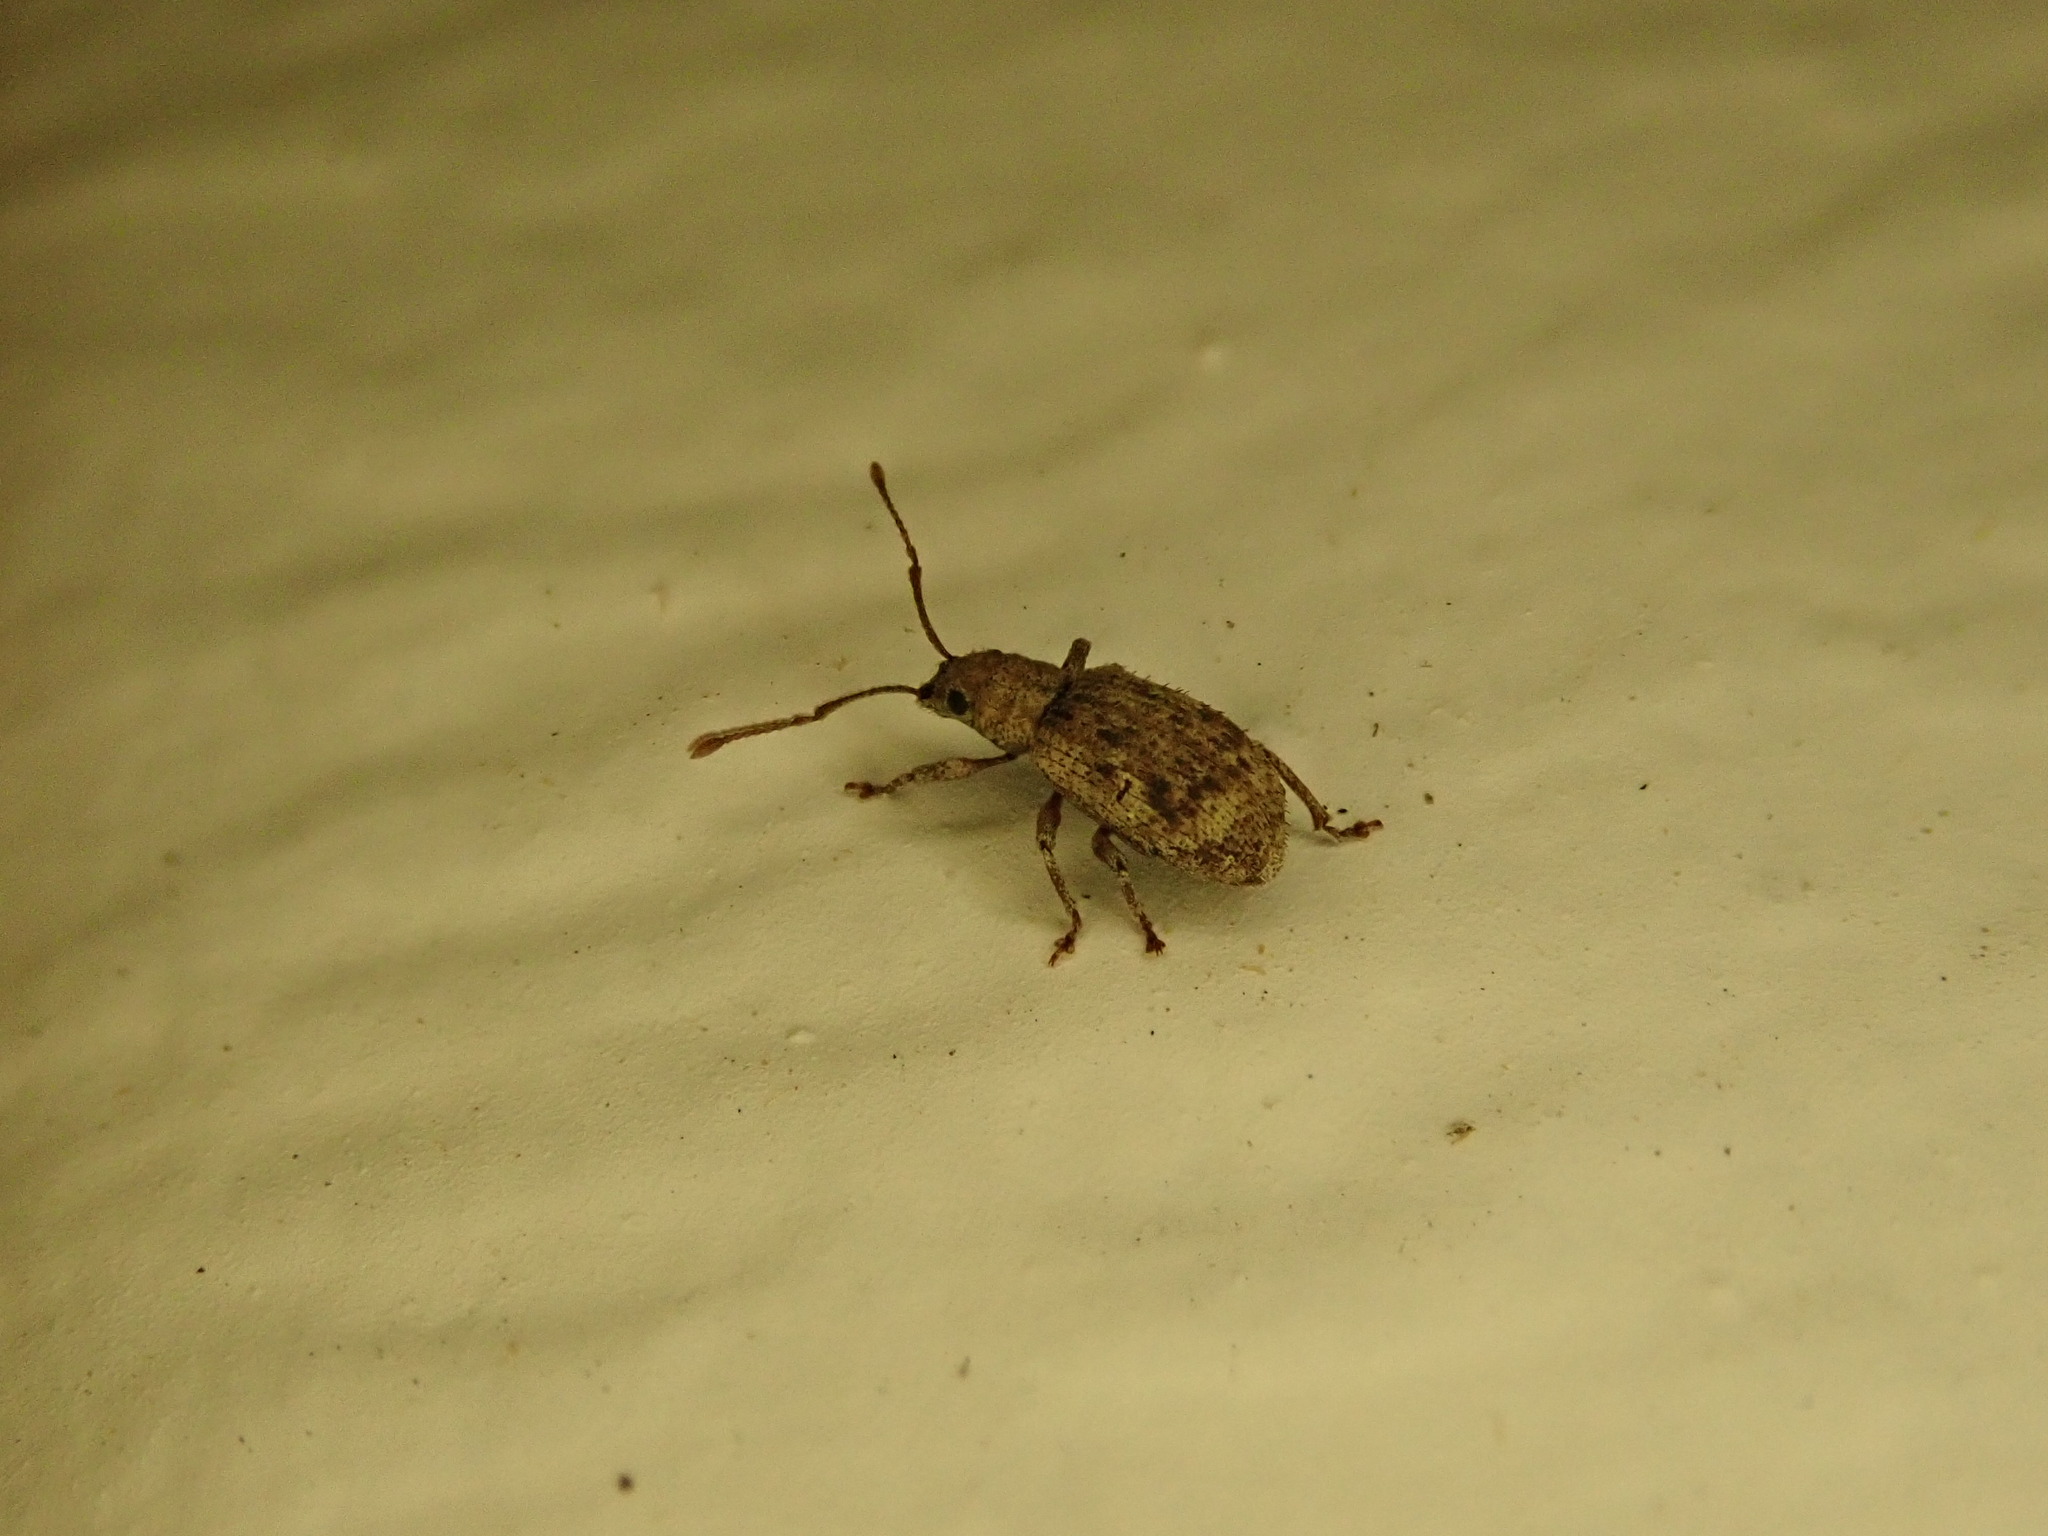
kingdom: Animalia
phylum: Arthropoda
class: Insecta
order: Coleoptera
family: Curculionidae
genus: Pseudoedophrys
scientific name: Pseudoedophrys hilleri
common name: Weevil
